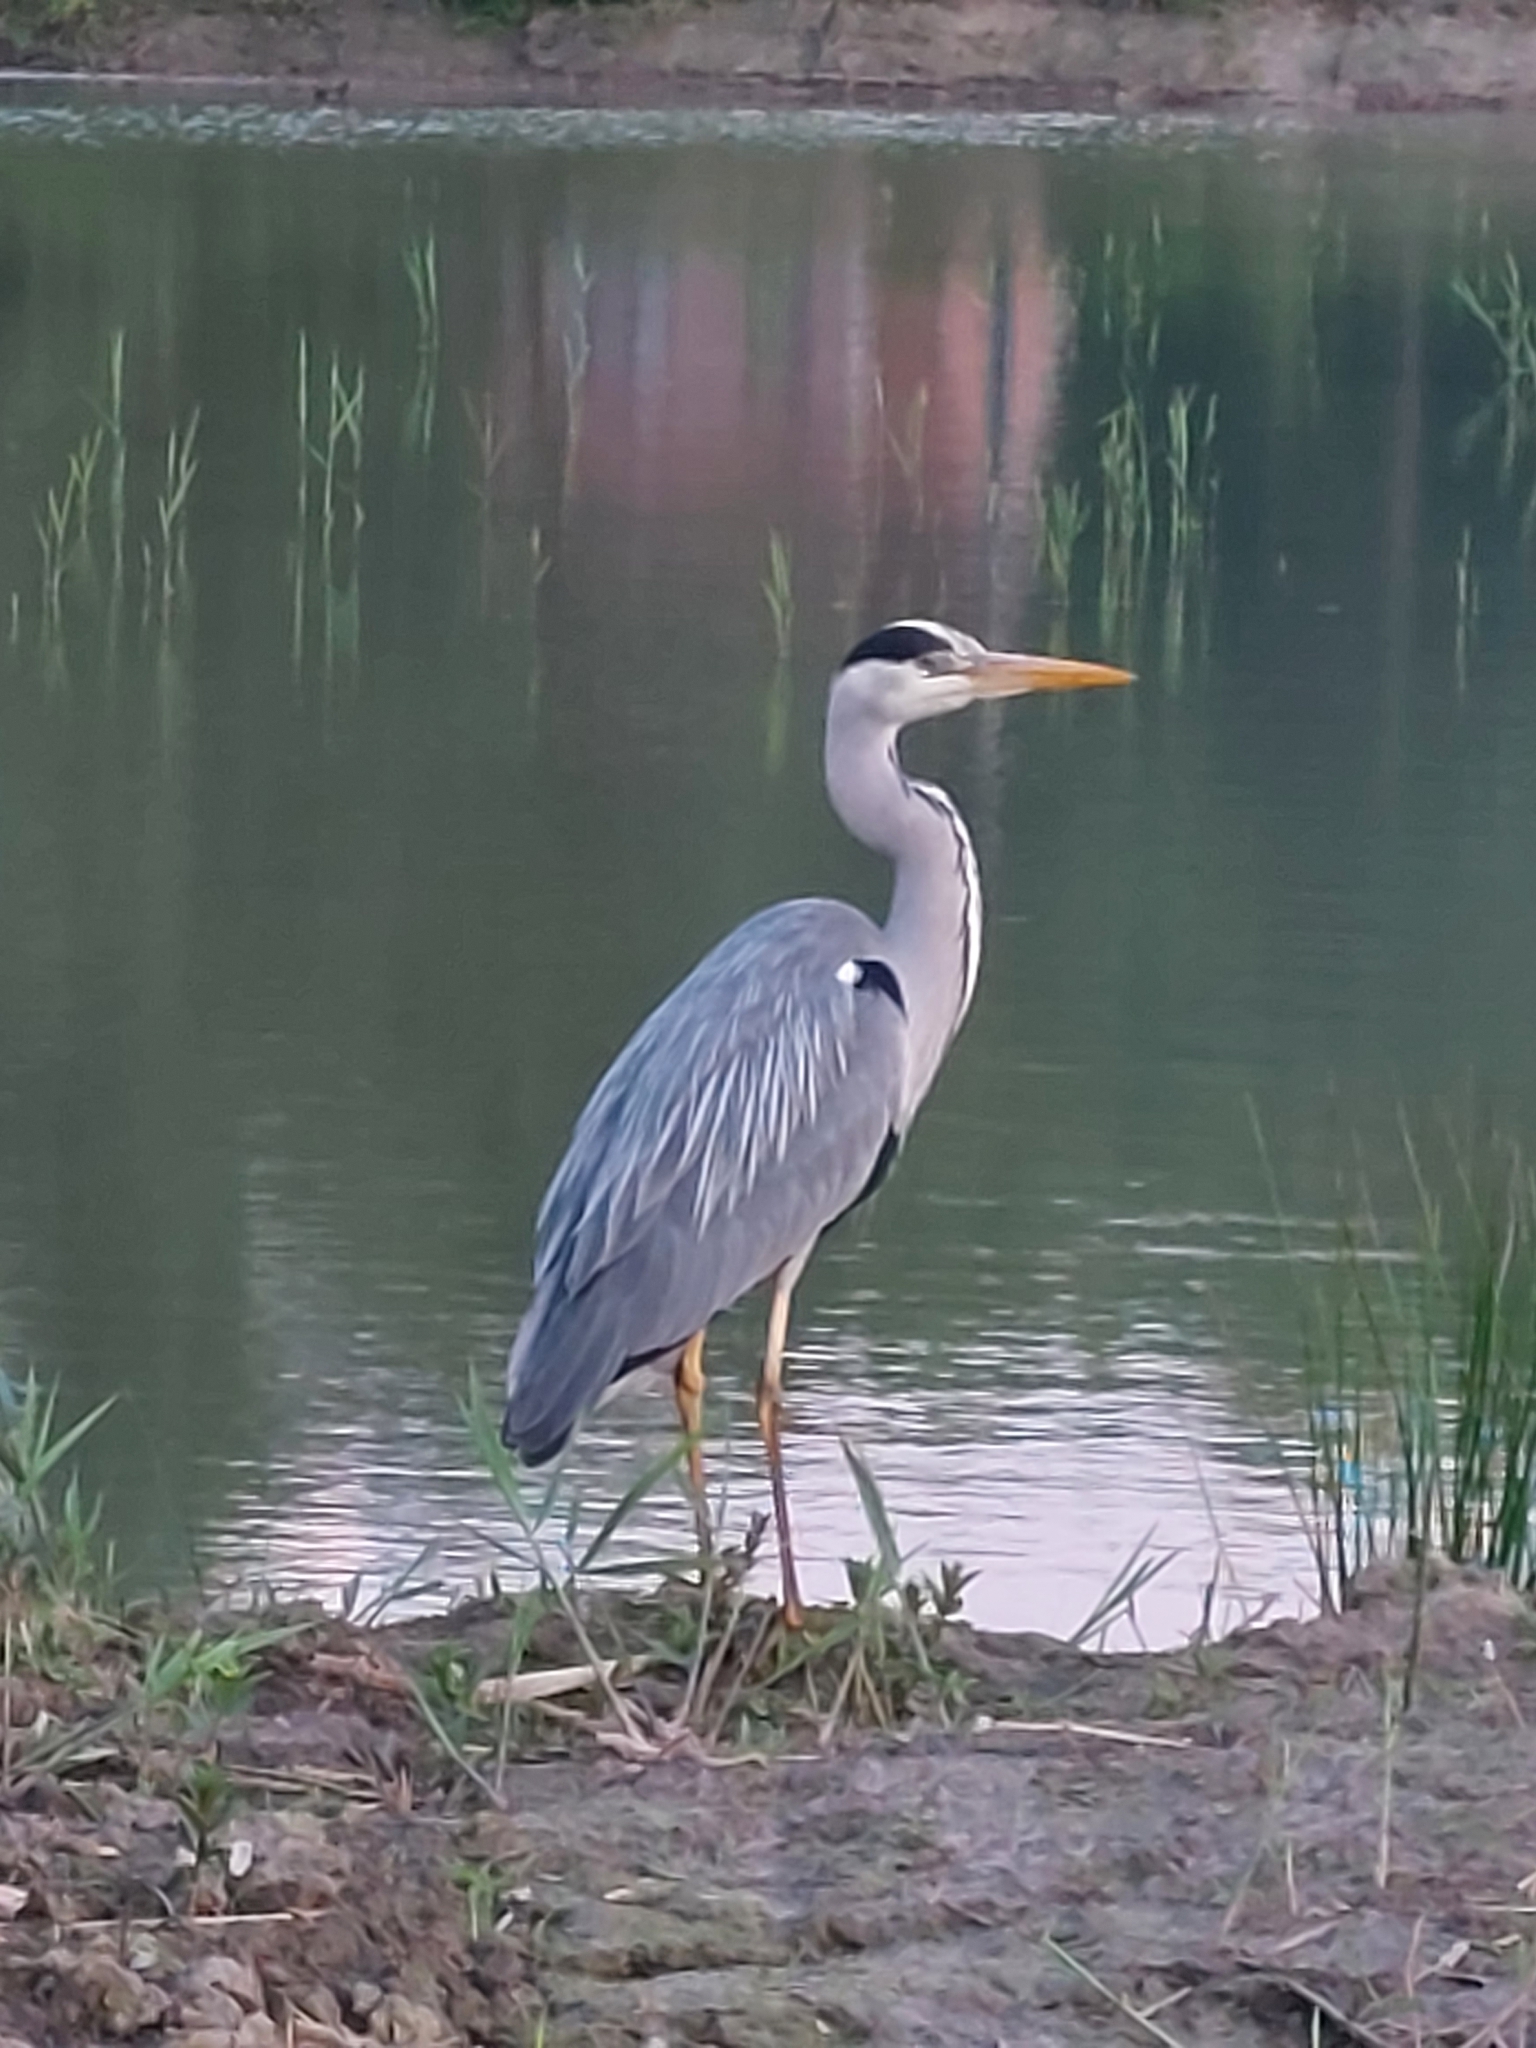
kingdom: Animalia
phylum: Chordata
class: Aves
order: Pelecaniformes
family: Ardeidae
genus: Ardea
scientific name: Ardea cinerea
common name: Grey heron
